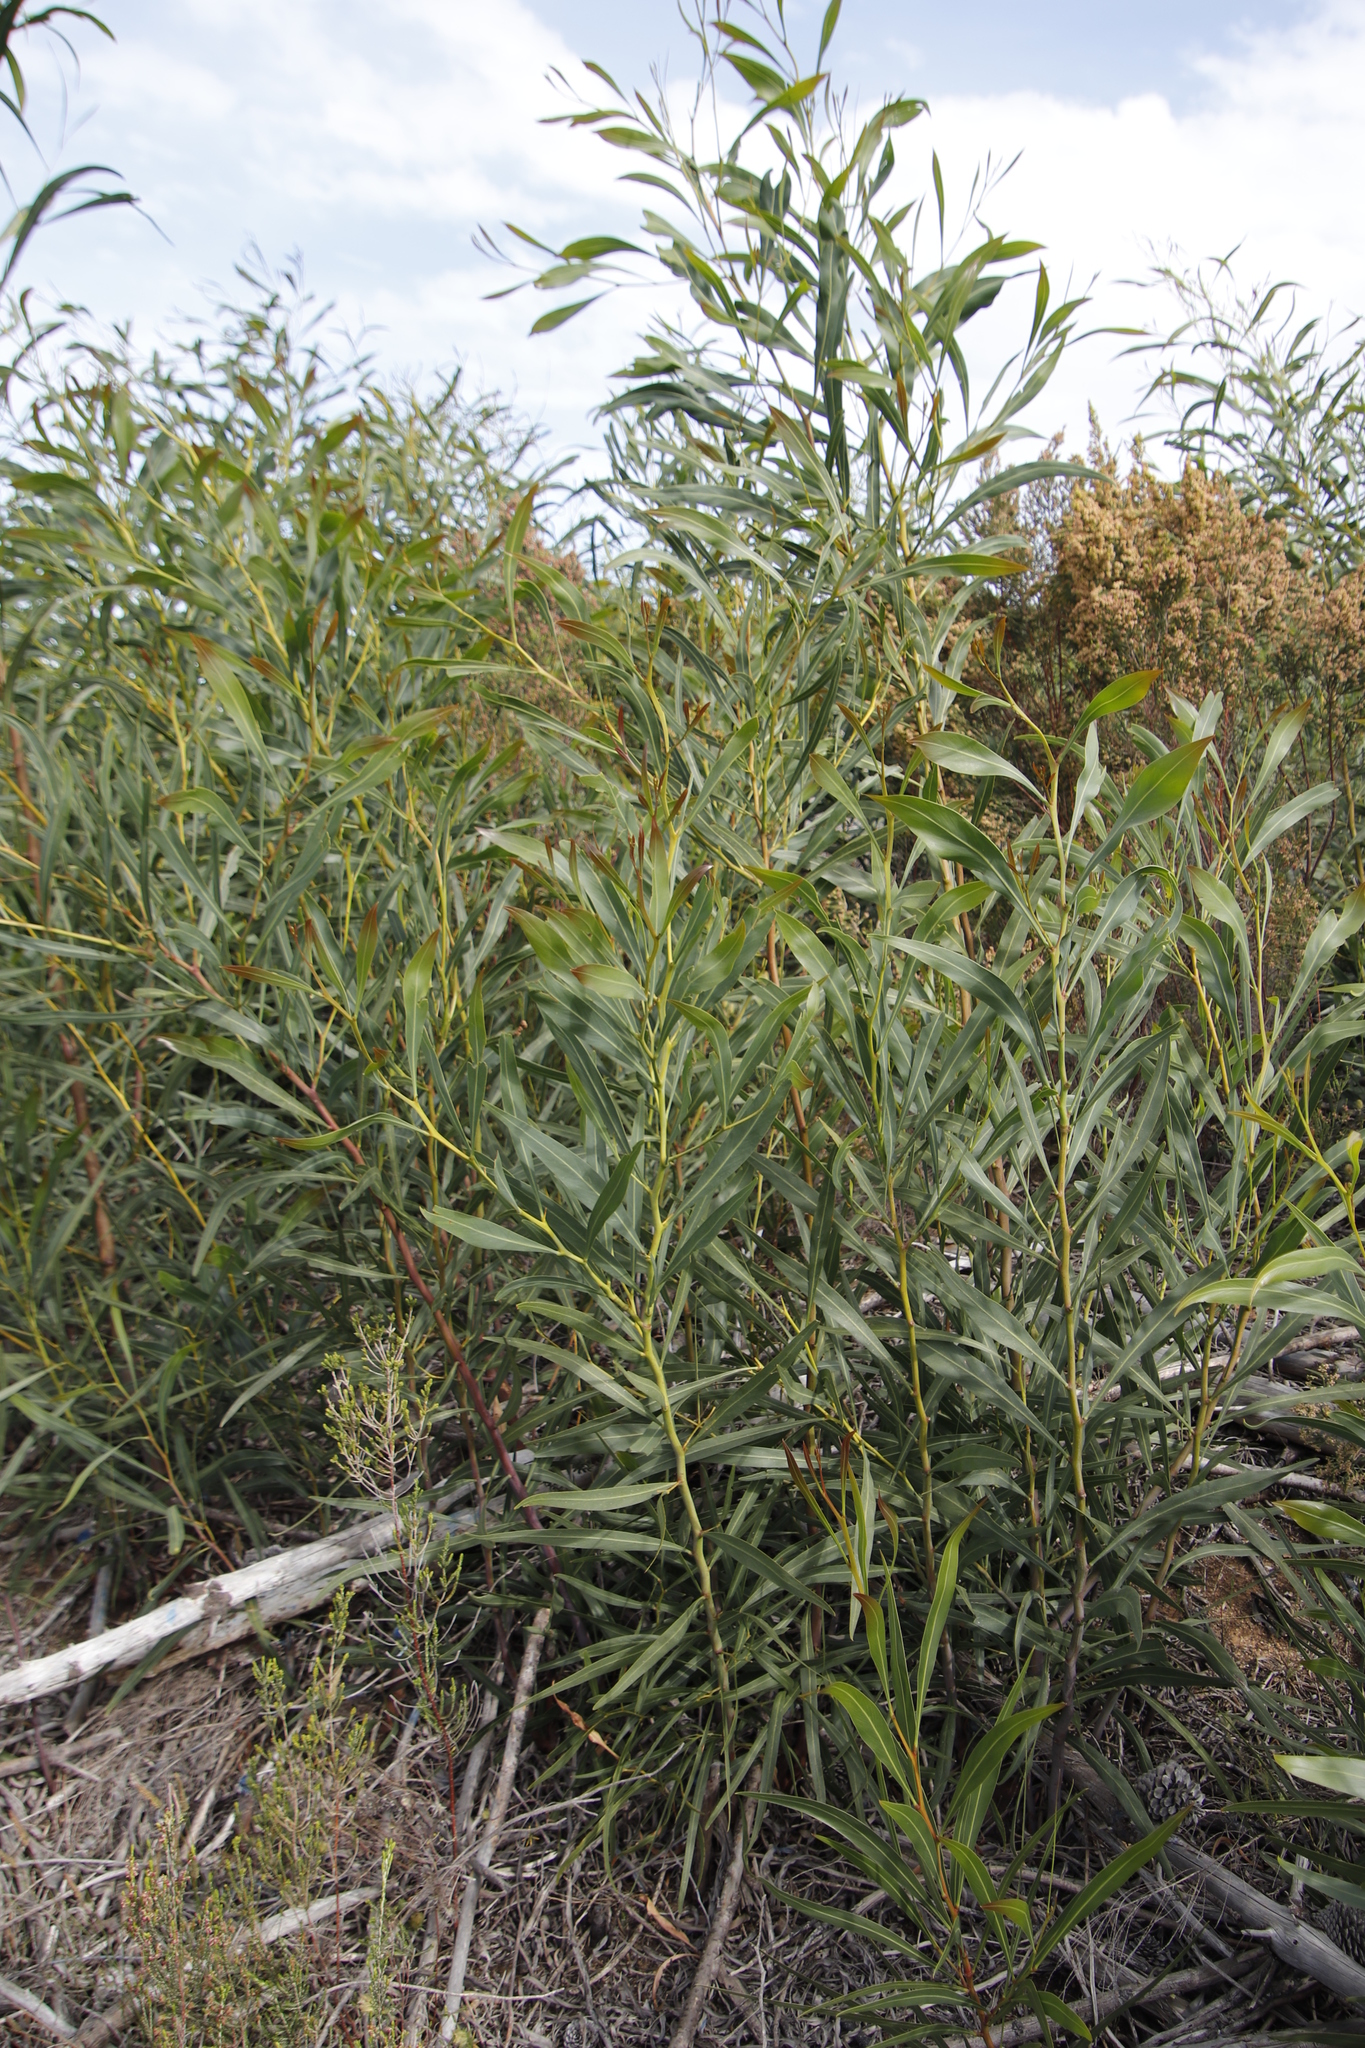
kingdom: Plantae
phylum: Tracheophyta
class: Magnoliopsida
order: Fabales
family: Fabaceae
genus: Acacia
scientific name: Acacia saligna
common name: Orange wattle
